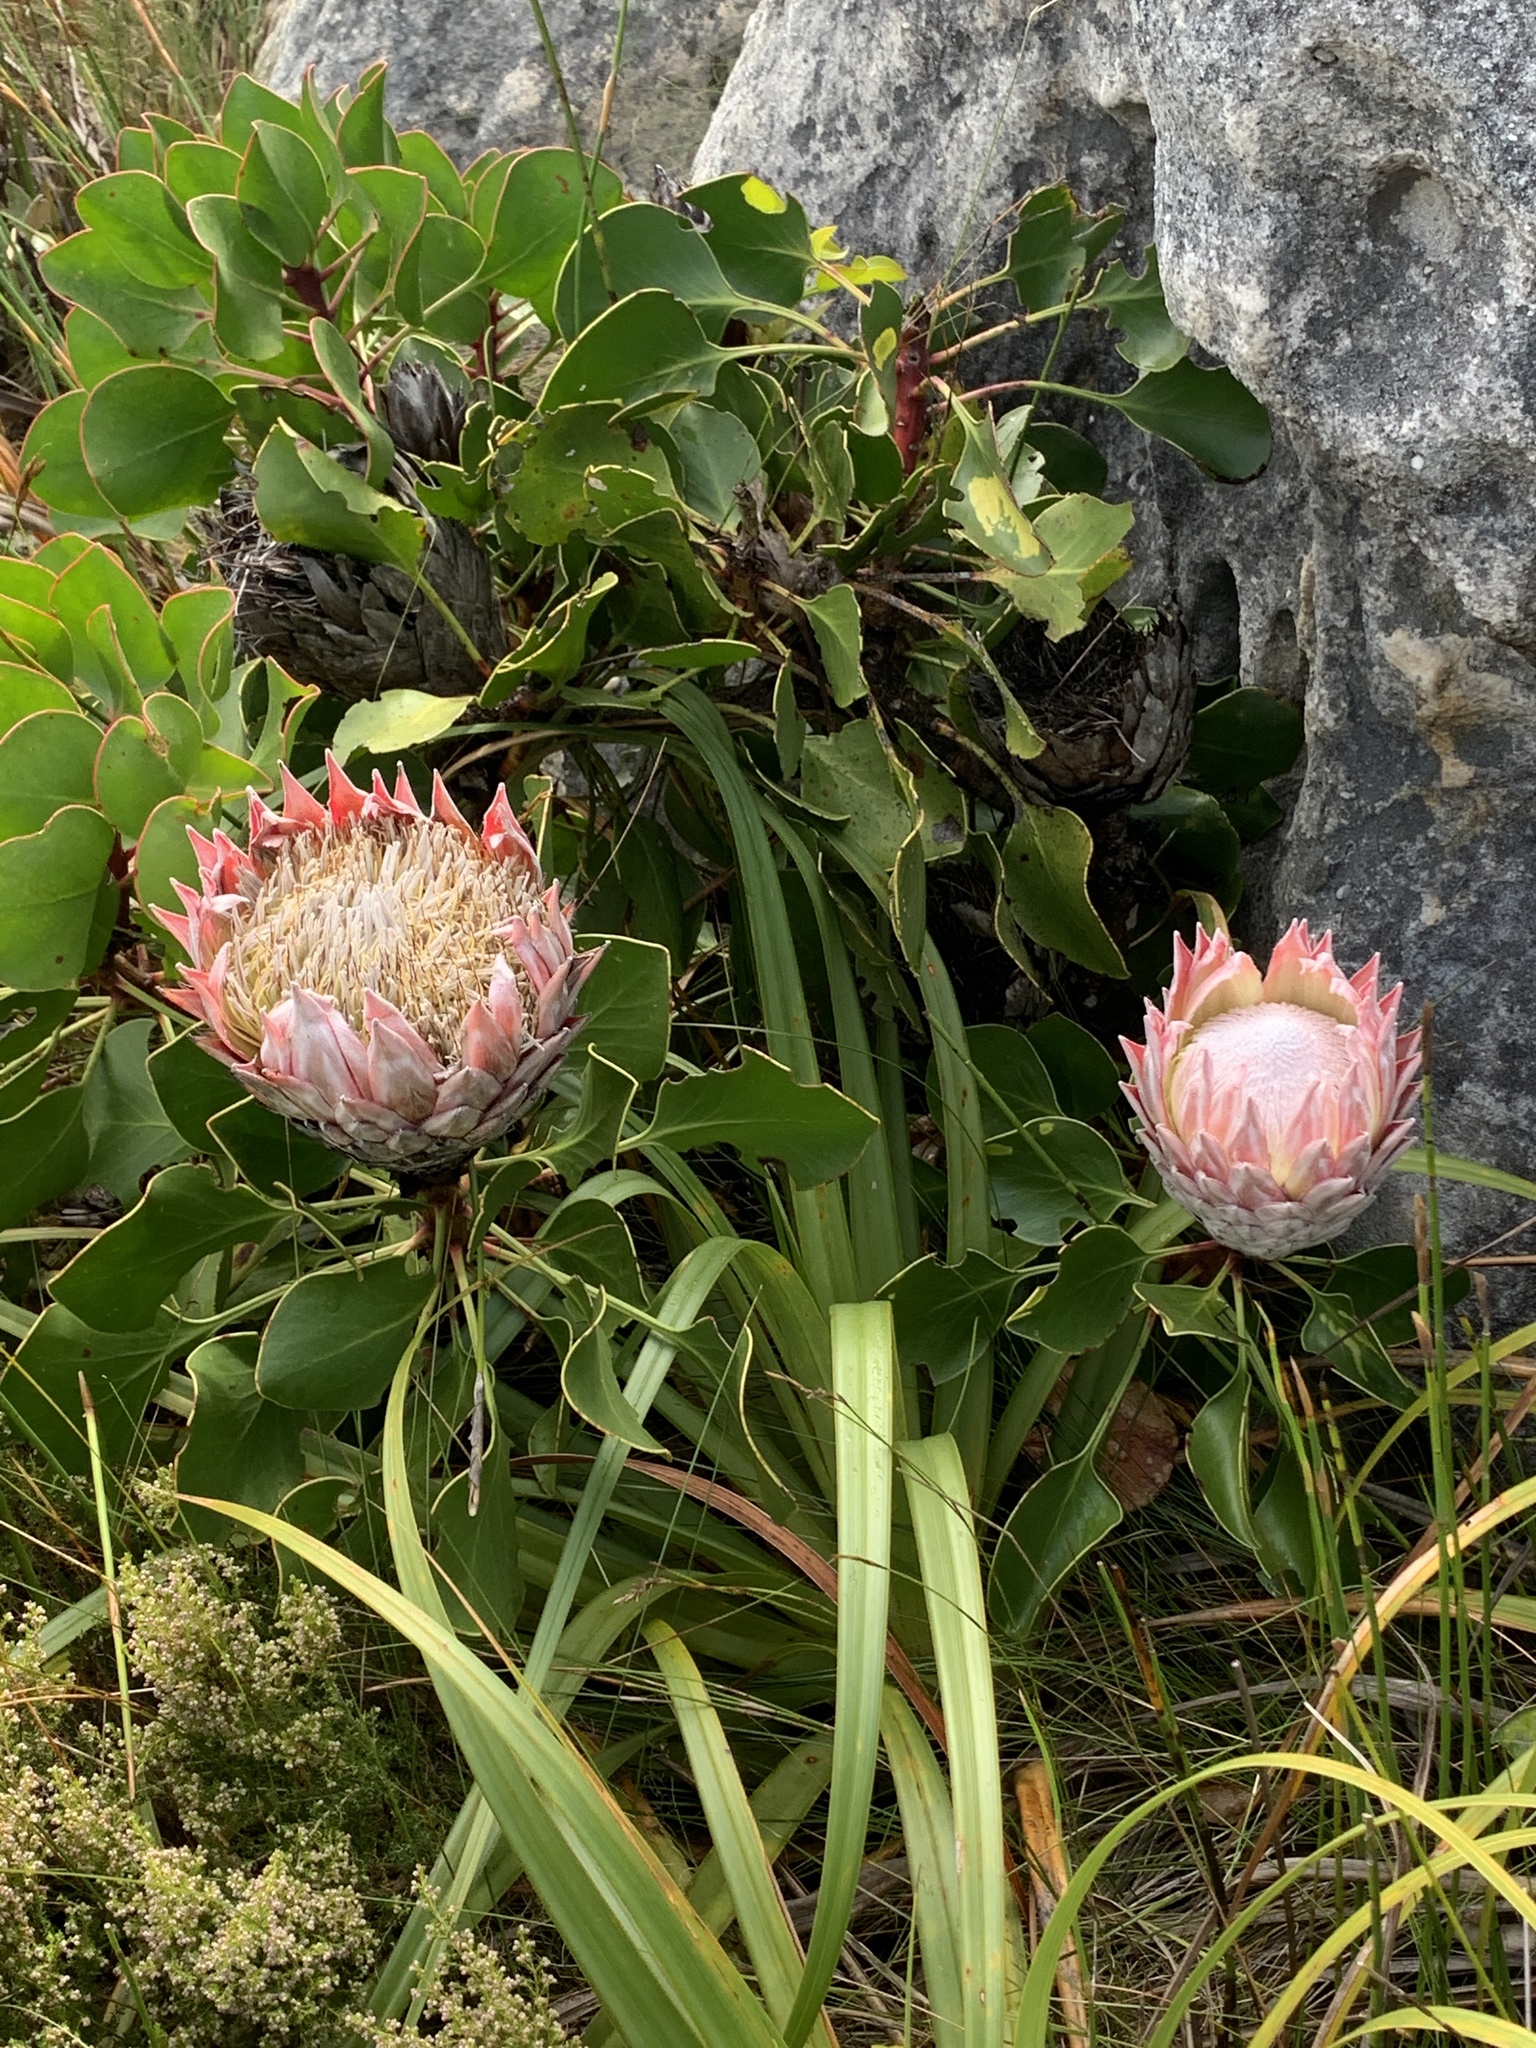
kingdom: Plantae
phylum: Tracheophyta
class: Magnoliopsida
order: Proteales
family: Proteaceae
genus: Protea
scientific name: Protea cynaroides
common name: King protea
